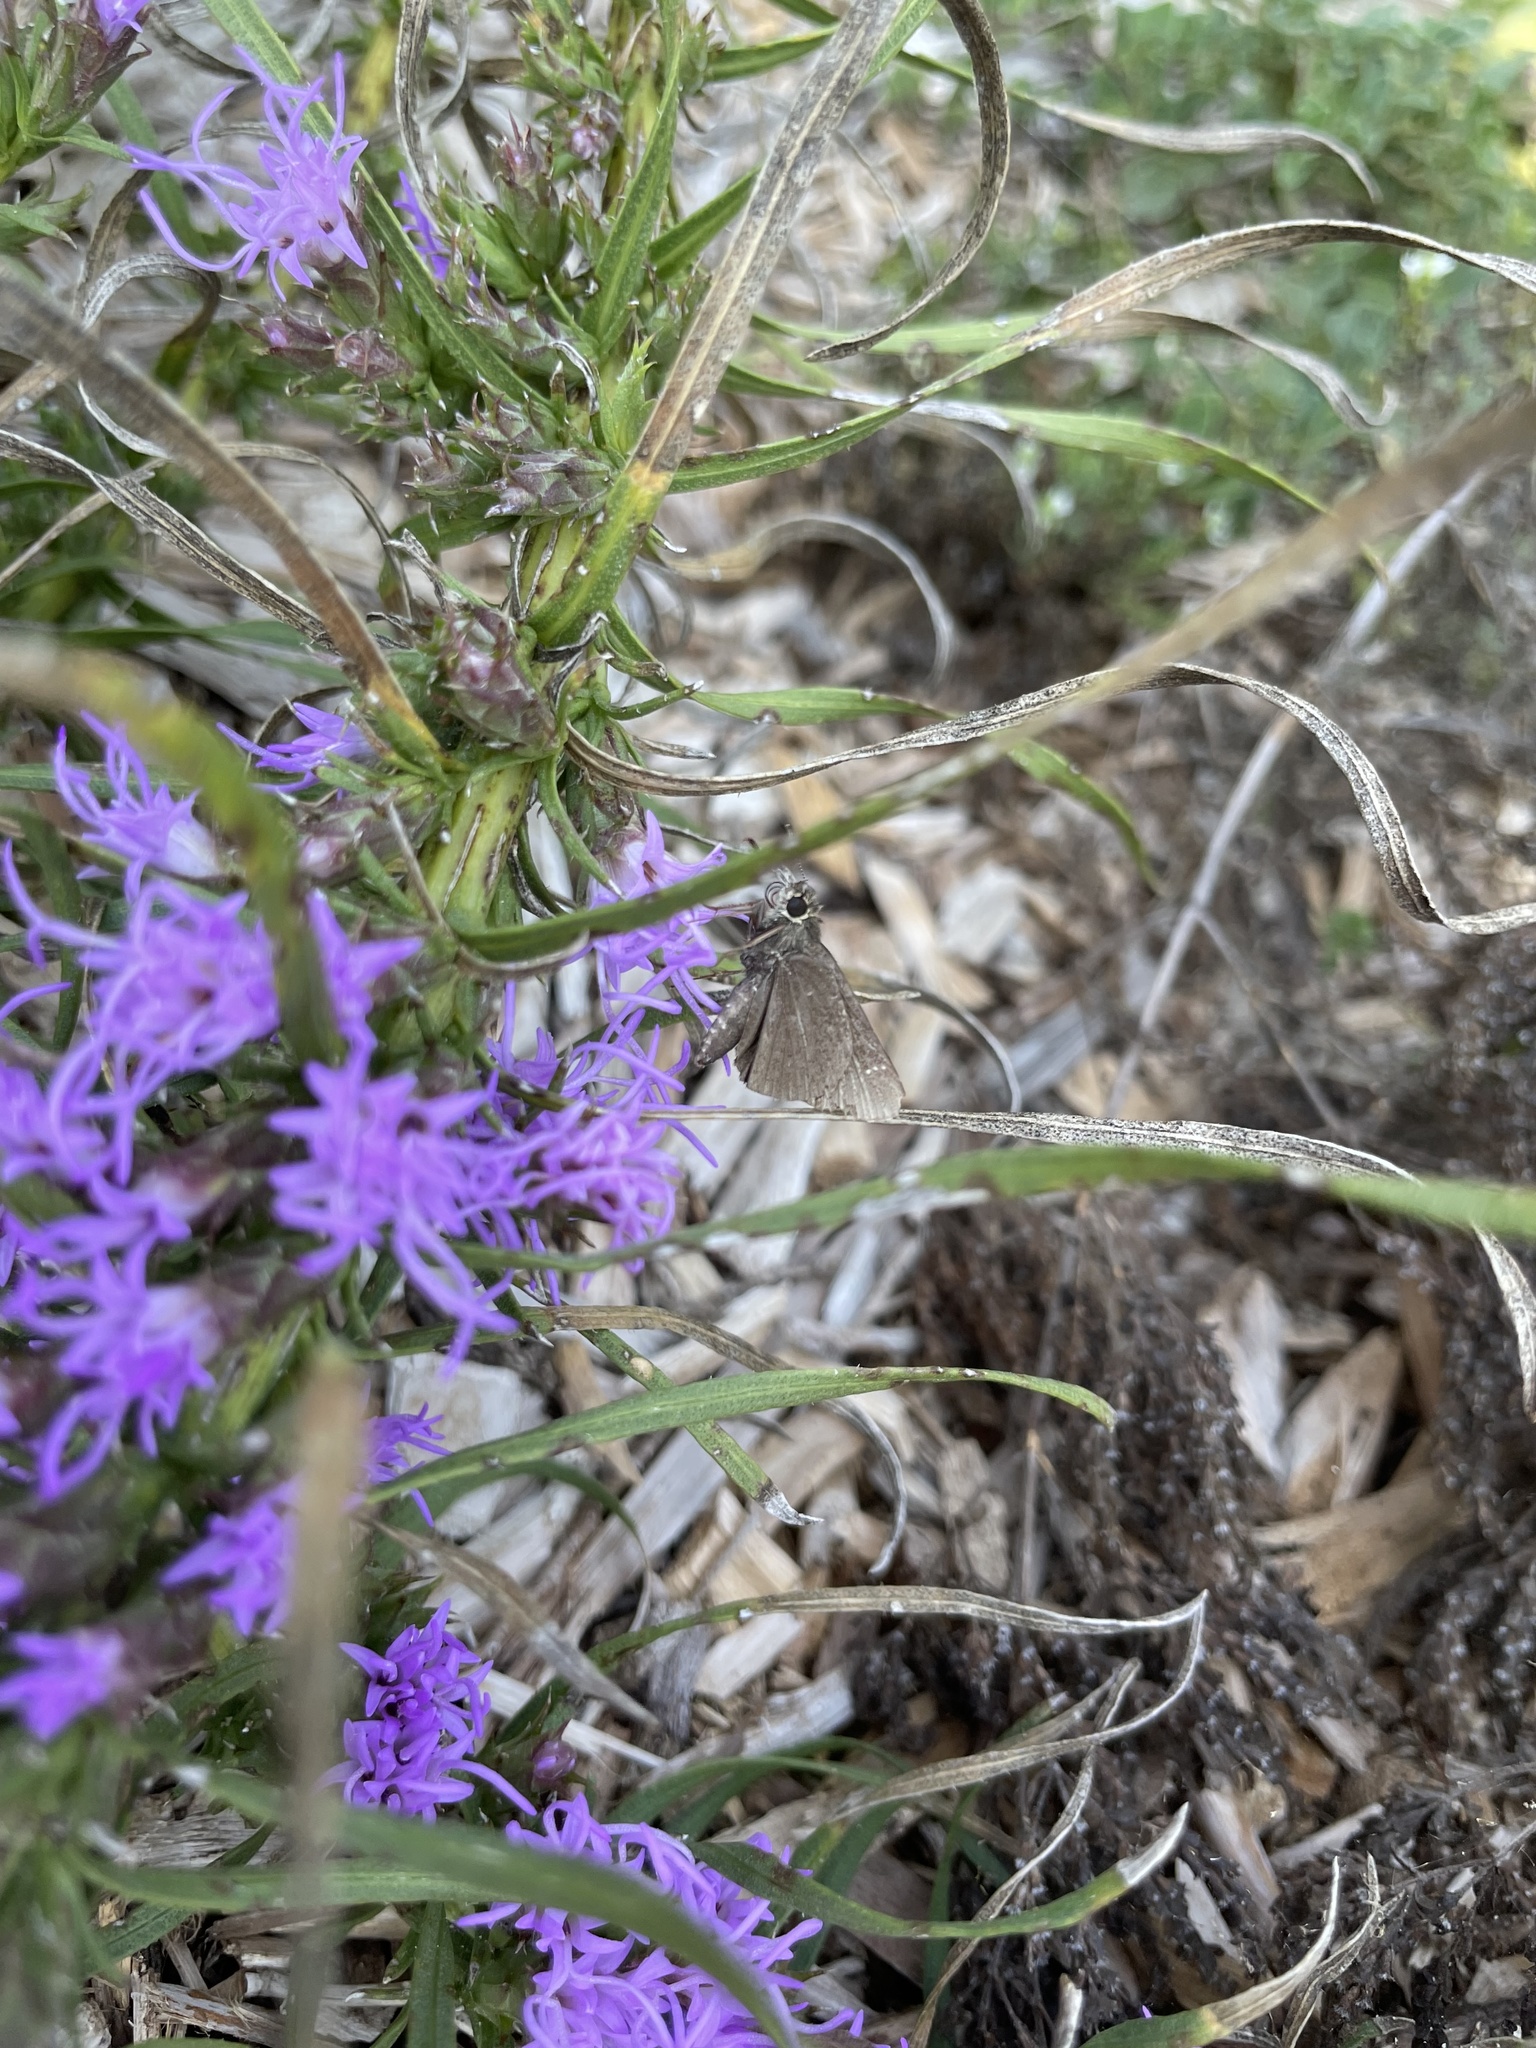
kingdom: Animalia
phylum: Arthropoda
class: Insecta
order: Lepidoptera
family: Hesperiidae
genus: Lerodea
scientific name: Lerodea eufala
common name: Eufala skipper
